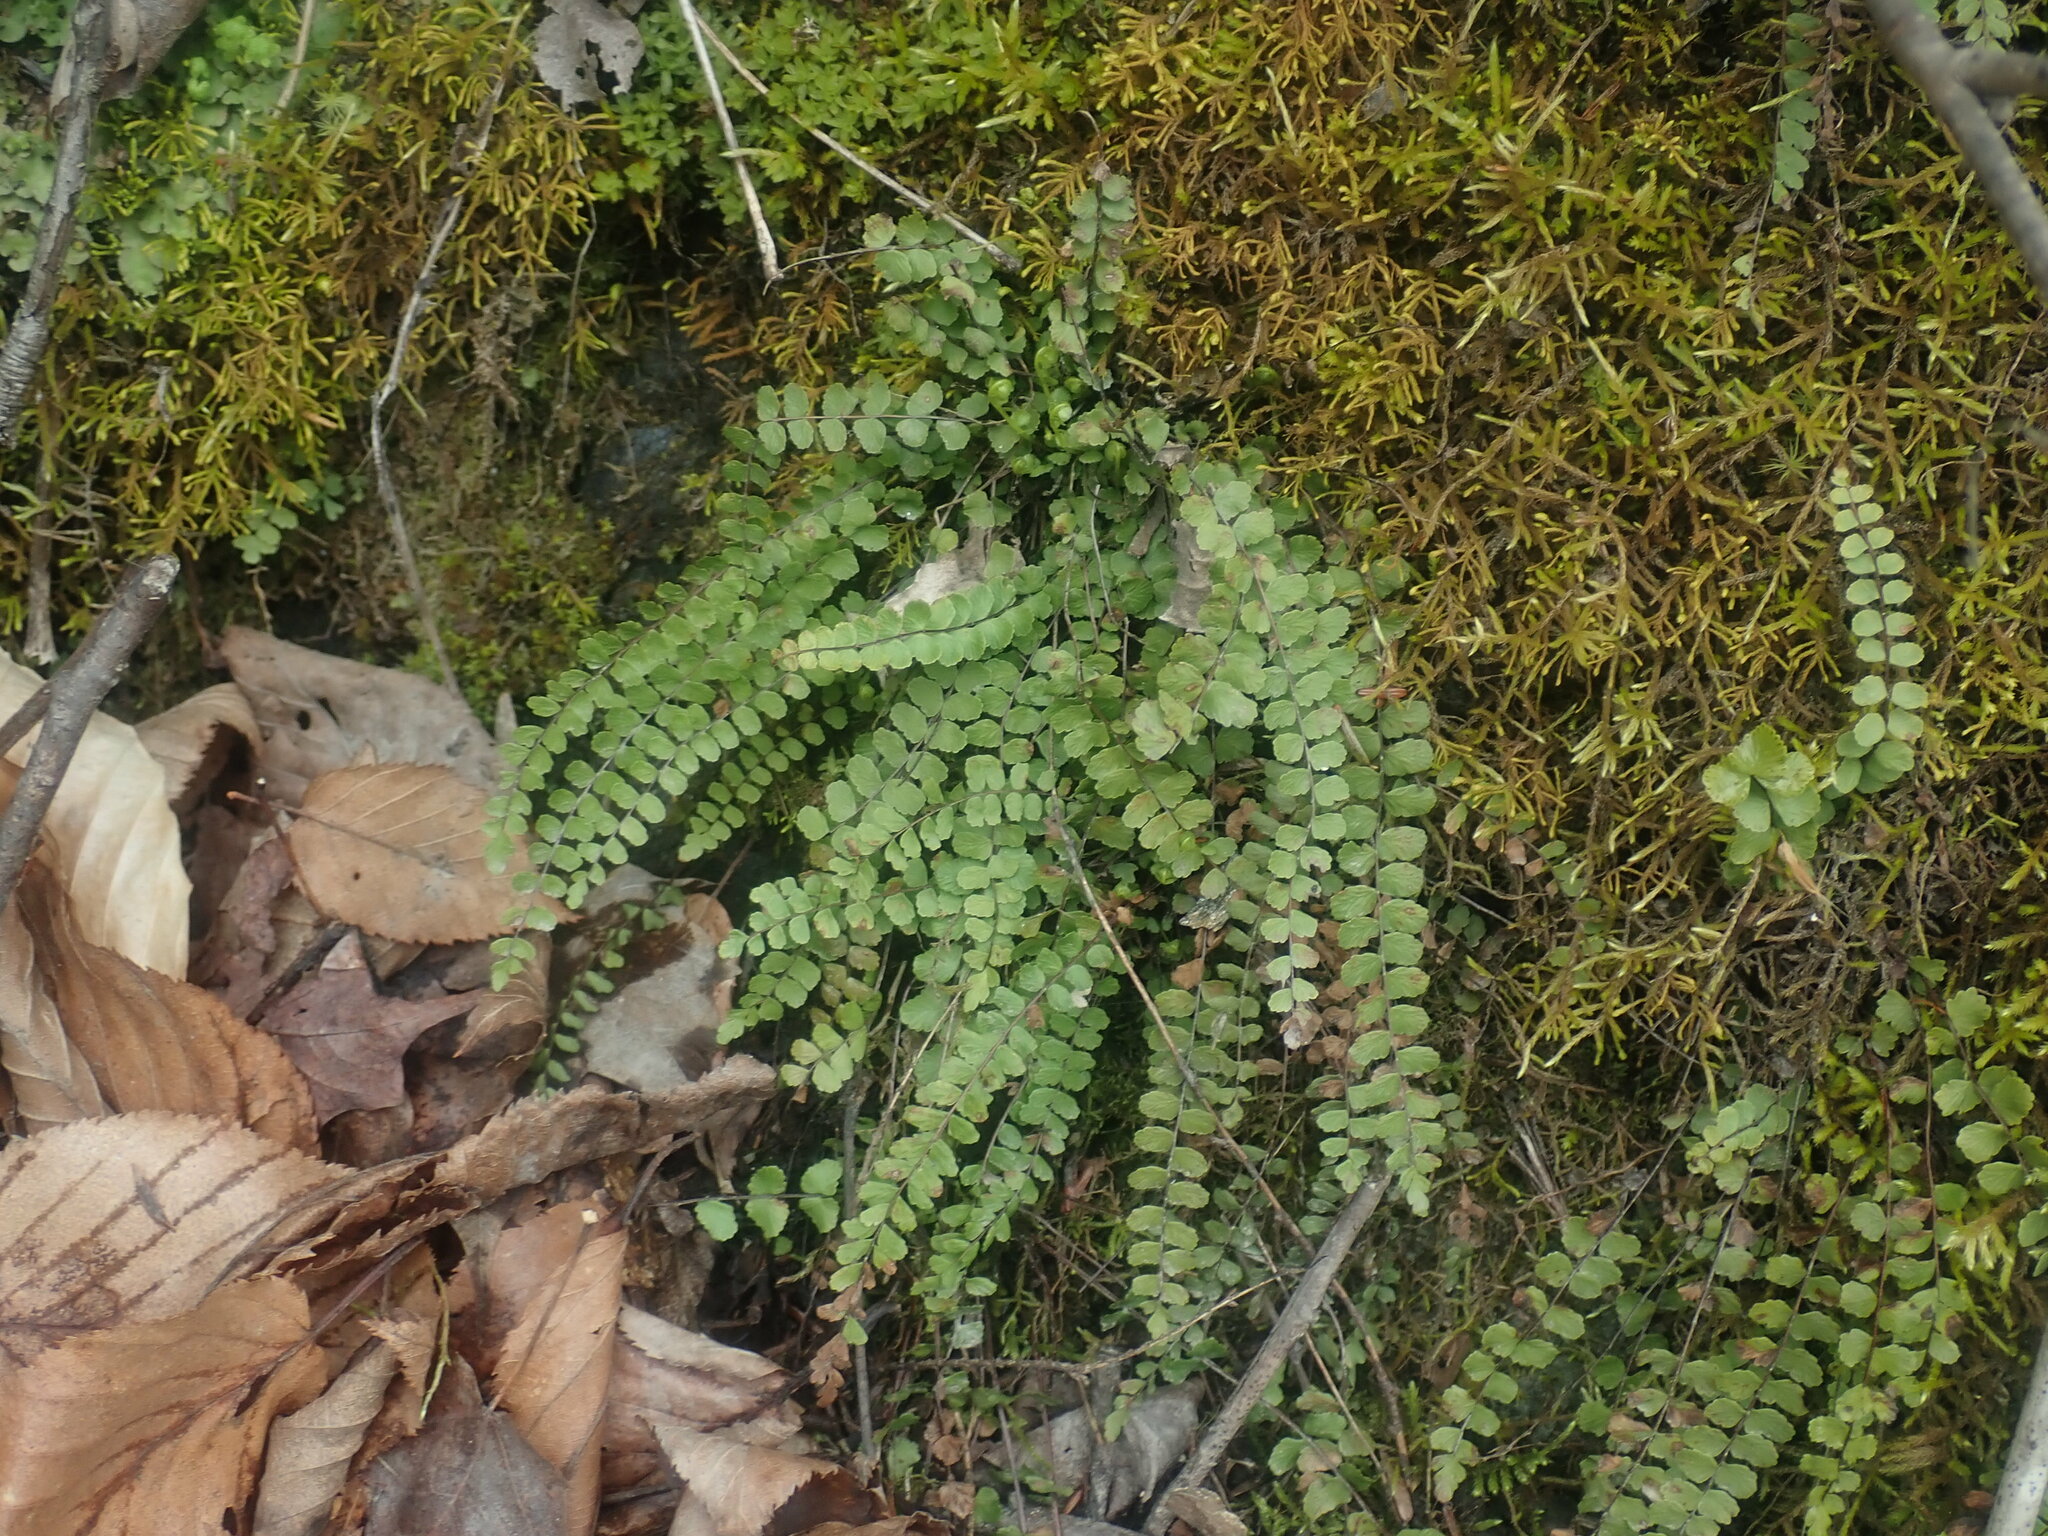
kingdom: Plantae
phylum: Tracheophyta
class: Polypodiopsida
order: Polypodiales
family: Aspleniaceae
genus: Asplenium
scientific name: Asplenium trichomanes
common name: Maidenhair spleenwort
